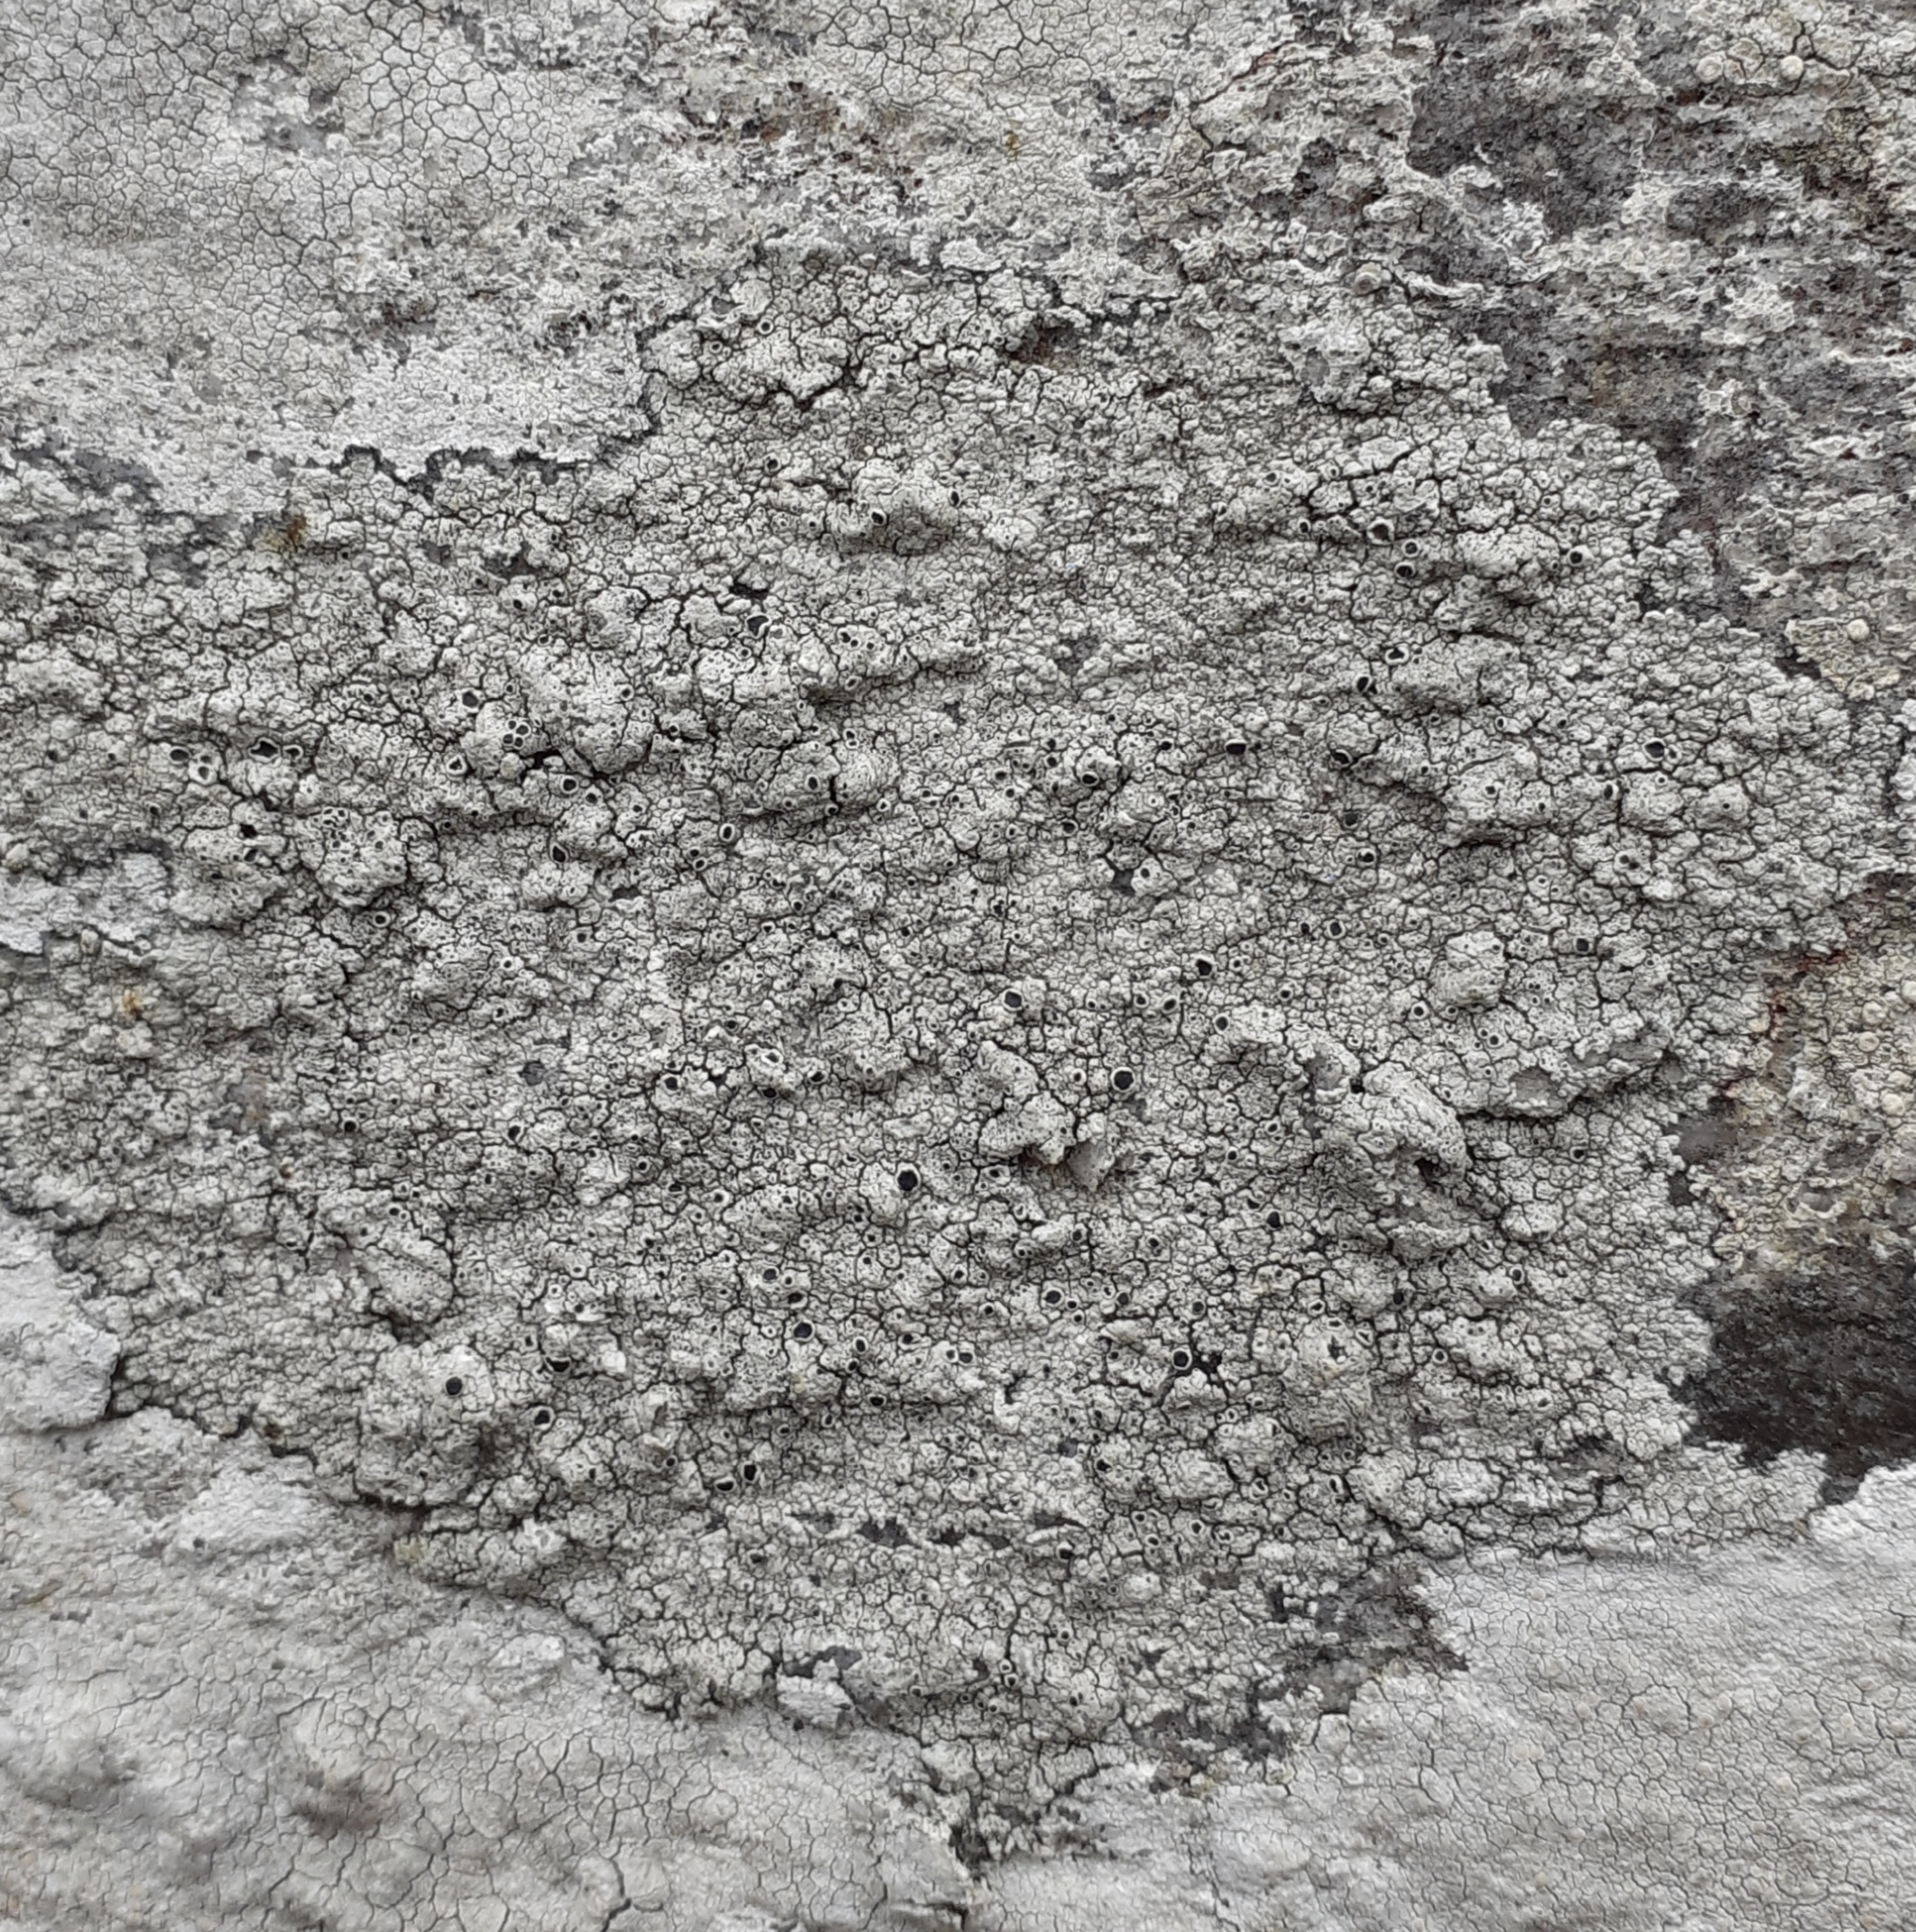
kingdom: Fungi
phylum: Ascomycota
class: Lecanoromycetes
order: Lecanorales
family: Tephromelataceae
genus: Tephromela
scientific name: Tephromela atra
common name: Black shields
